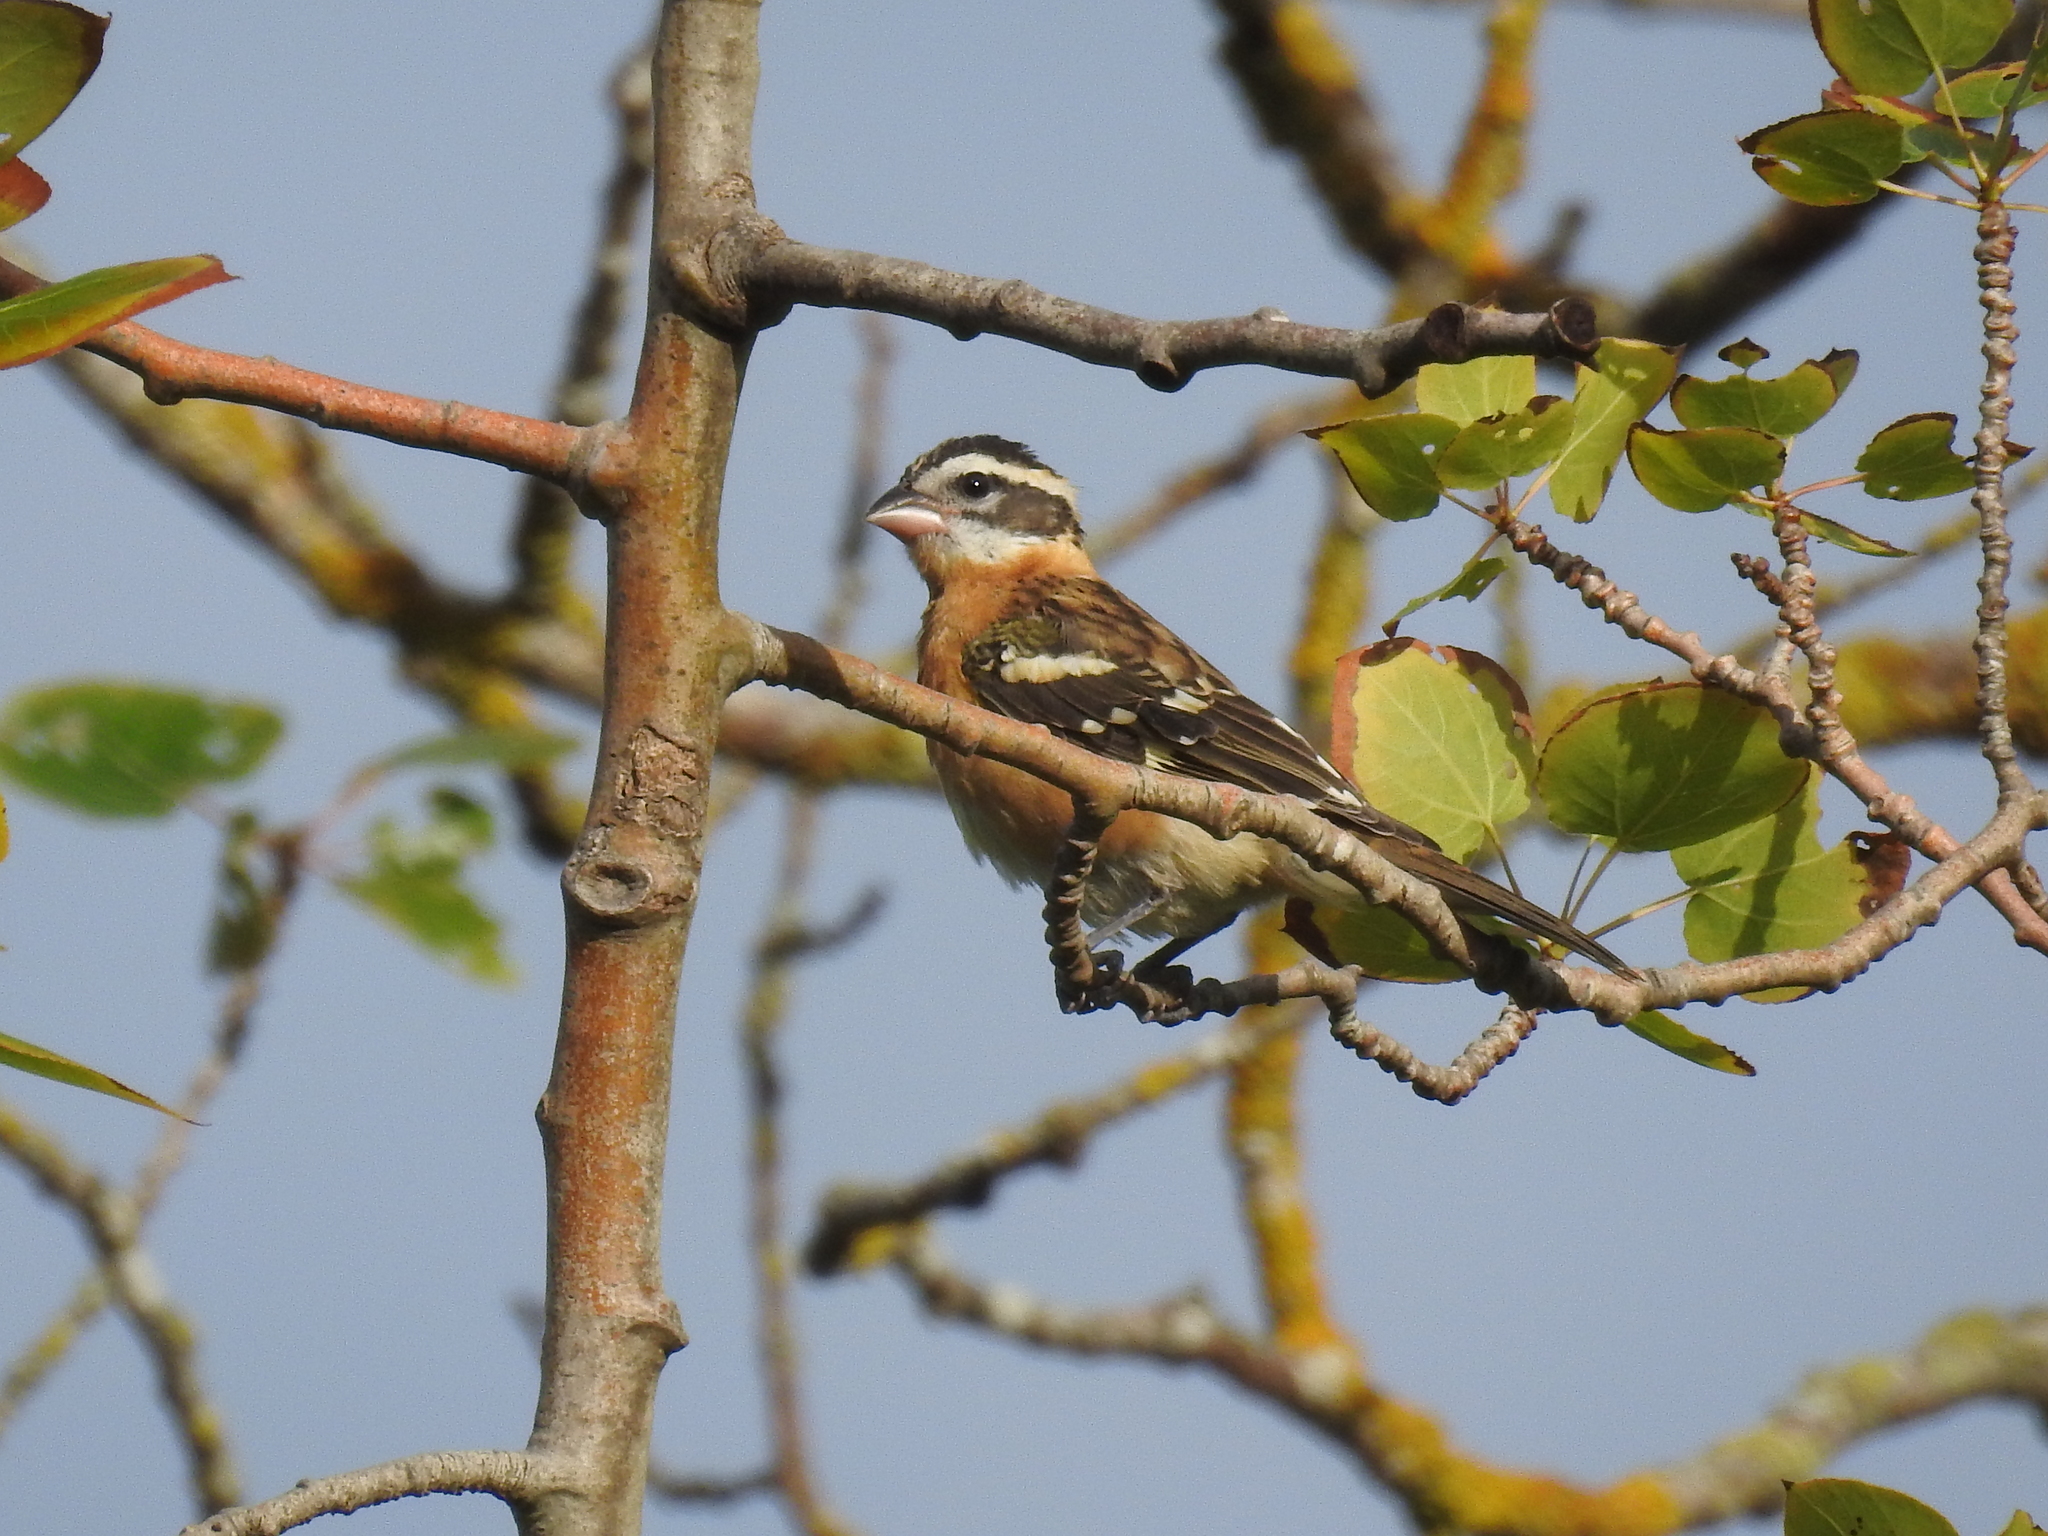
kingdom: Animalia
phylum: Chordata
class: Aves
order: Passeriformes
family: Cardinalidae
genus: Pheucticus
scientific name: Pheucticus melanocephalus
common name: Black-headed grosbeak
